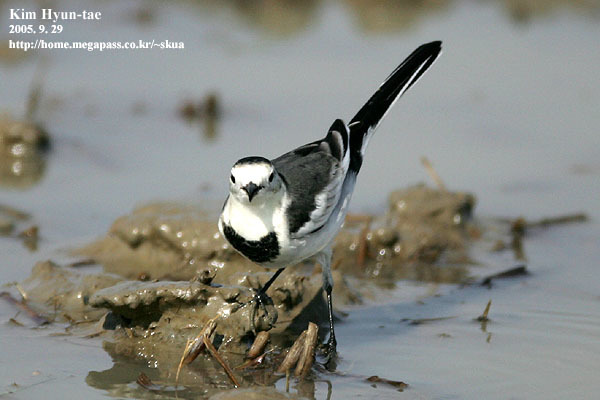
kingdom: Animalia
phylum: Chordata
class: Aves
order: Passeriformes
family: Motacillidae
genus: Motacilla
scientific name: Motacilla alba
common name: White wagtail
